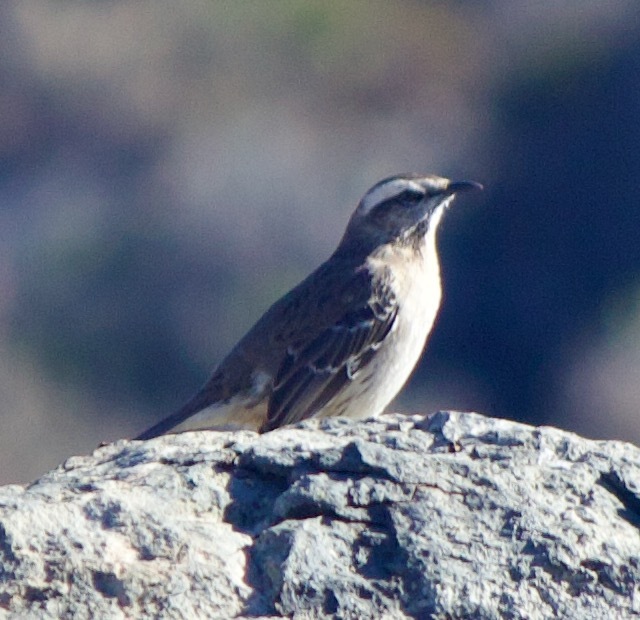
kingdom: Animalia
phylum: Chordata
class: Aves
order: Passeriformes
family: Mimidae
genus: Mimus
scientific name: Mimus thenca
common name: Chilean mockingbird
